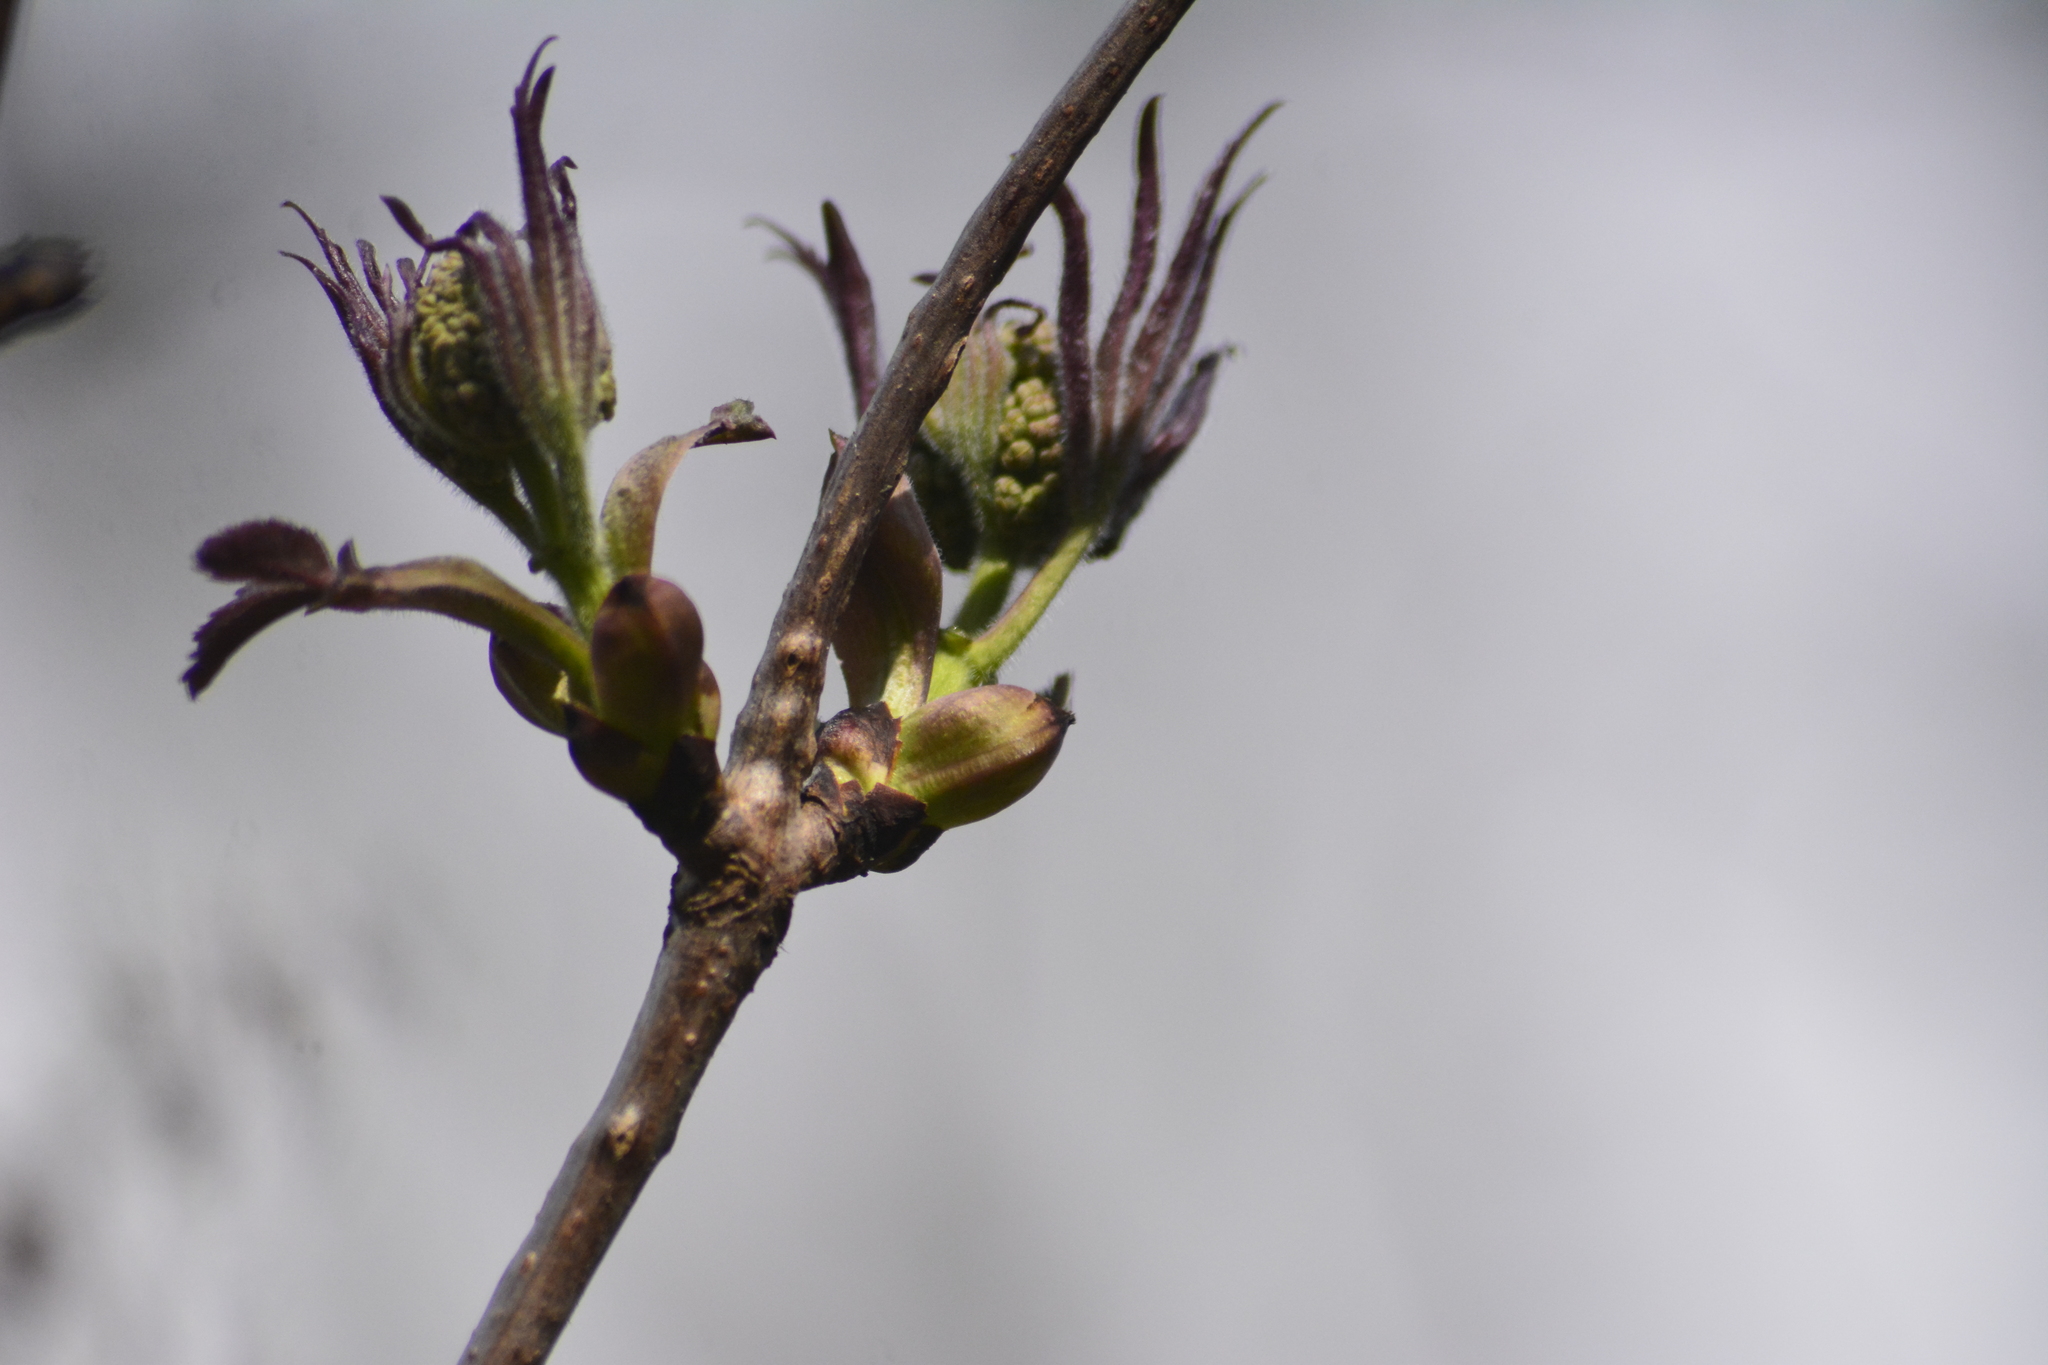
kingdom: Plantae
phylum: Tracheophyta
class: Magnoliopsida
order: Dipsacales
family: Viburnaceae
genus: Sambucus
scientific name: Sambucus racemosa
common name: Red-berried elder
